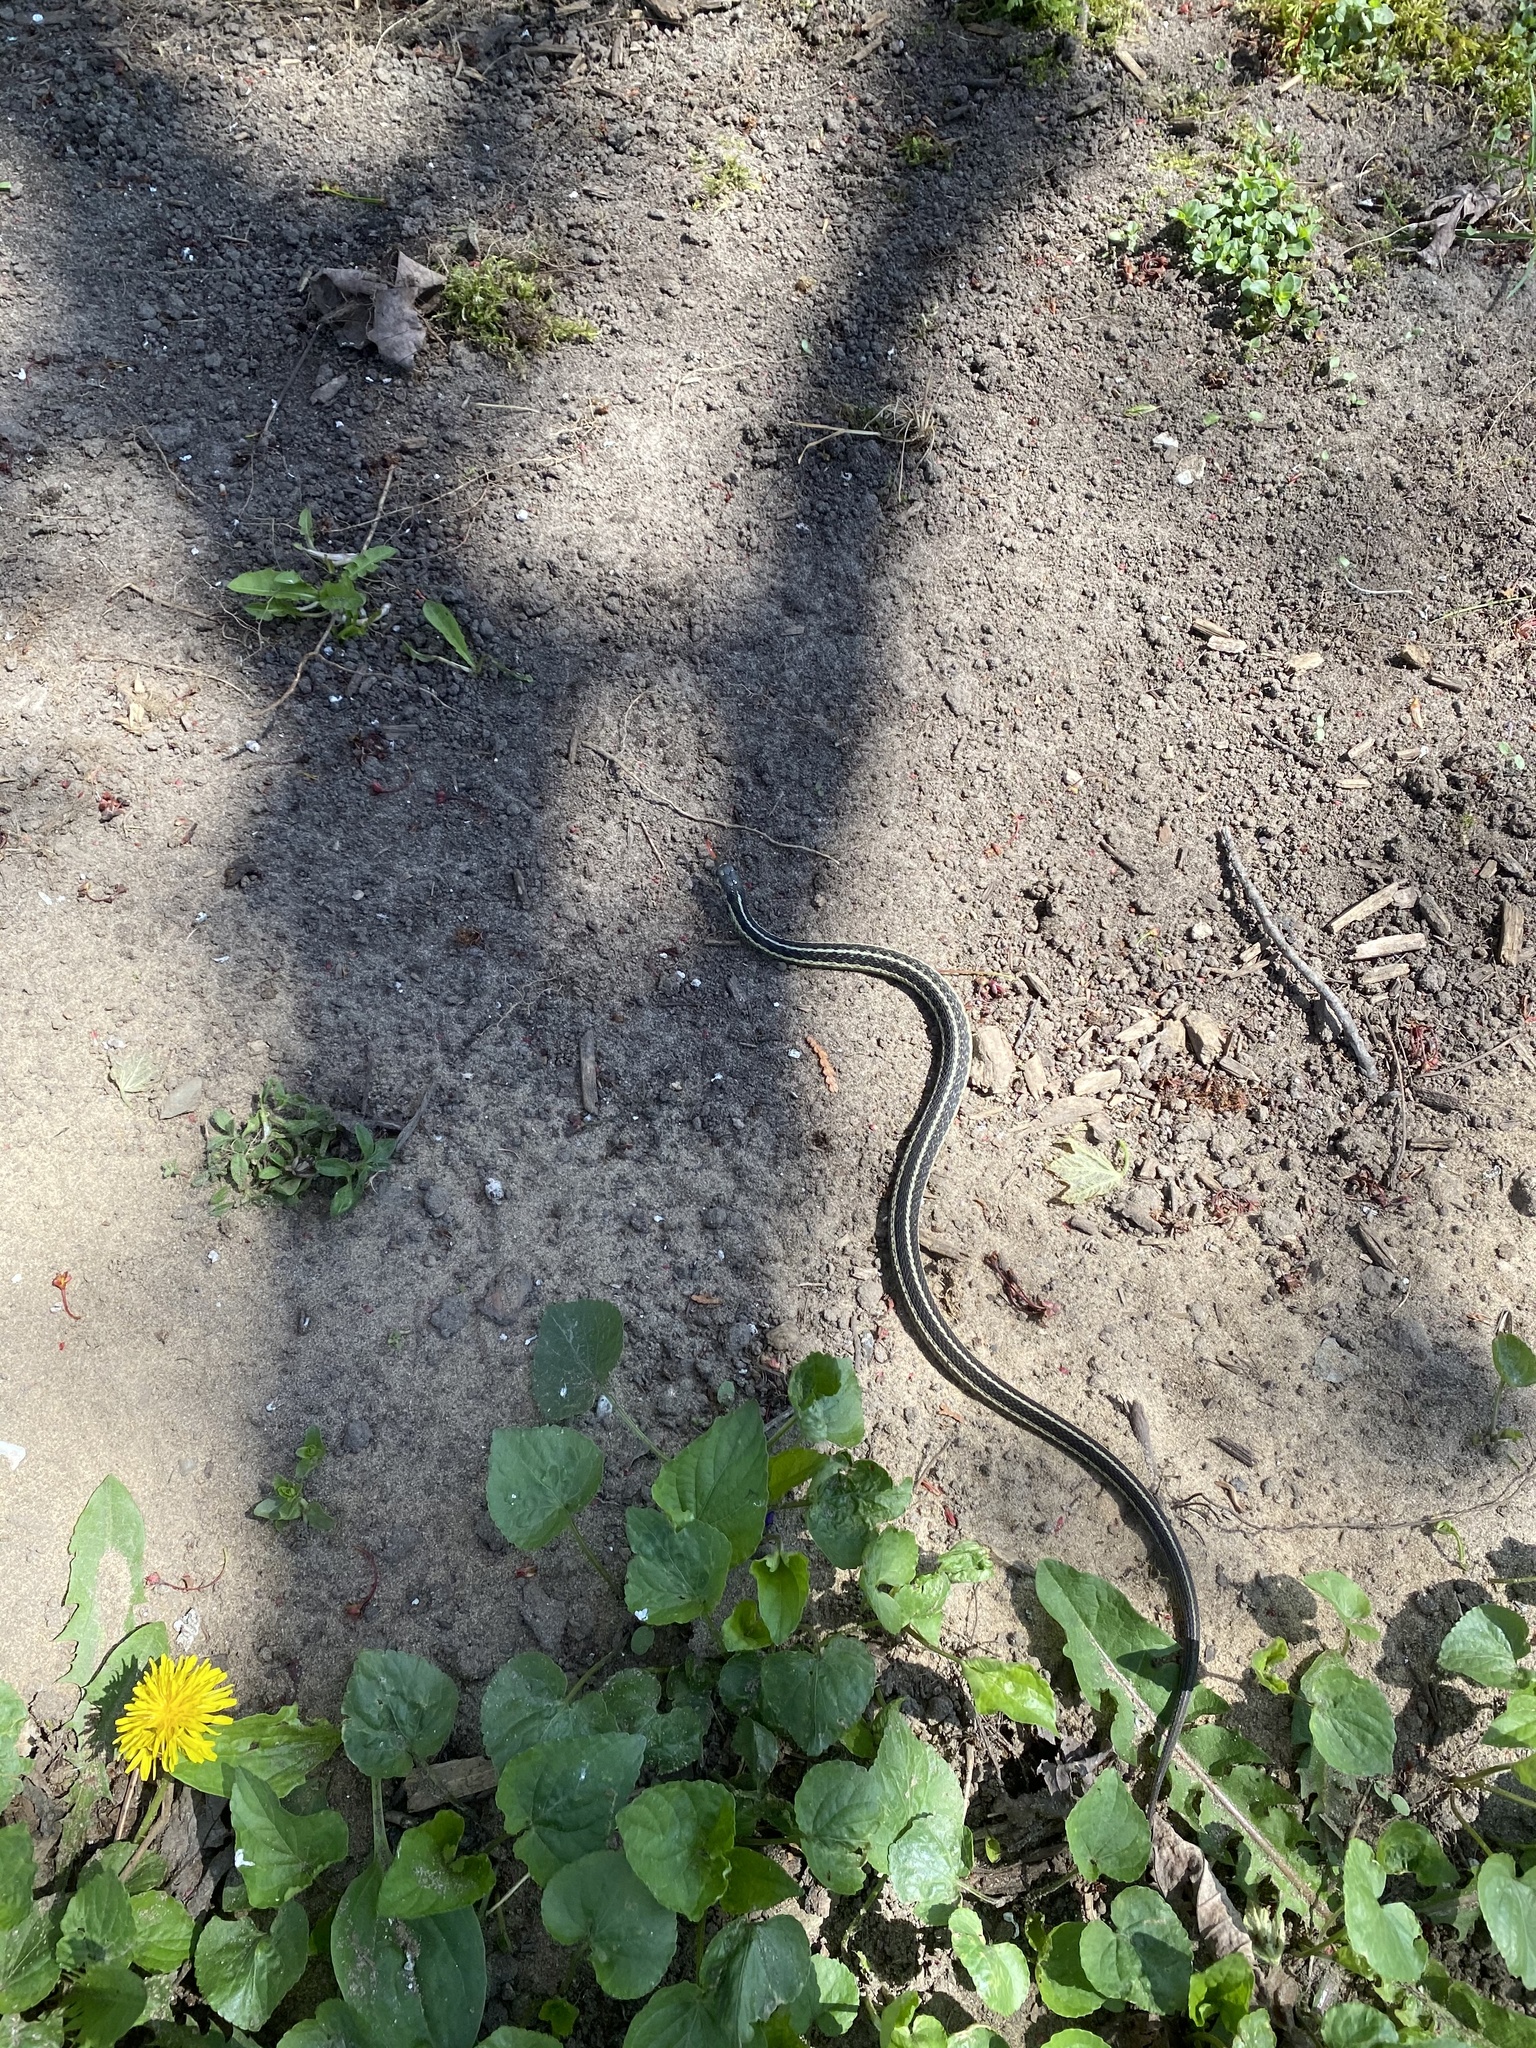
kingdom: Animalia
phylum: Chordata
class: Squamata
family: Colubridae
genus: Thamnophis
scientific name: Thamnophis sirtalis
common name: Common garter snake
